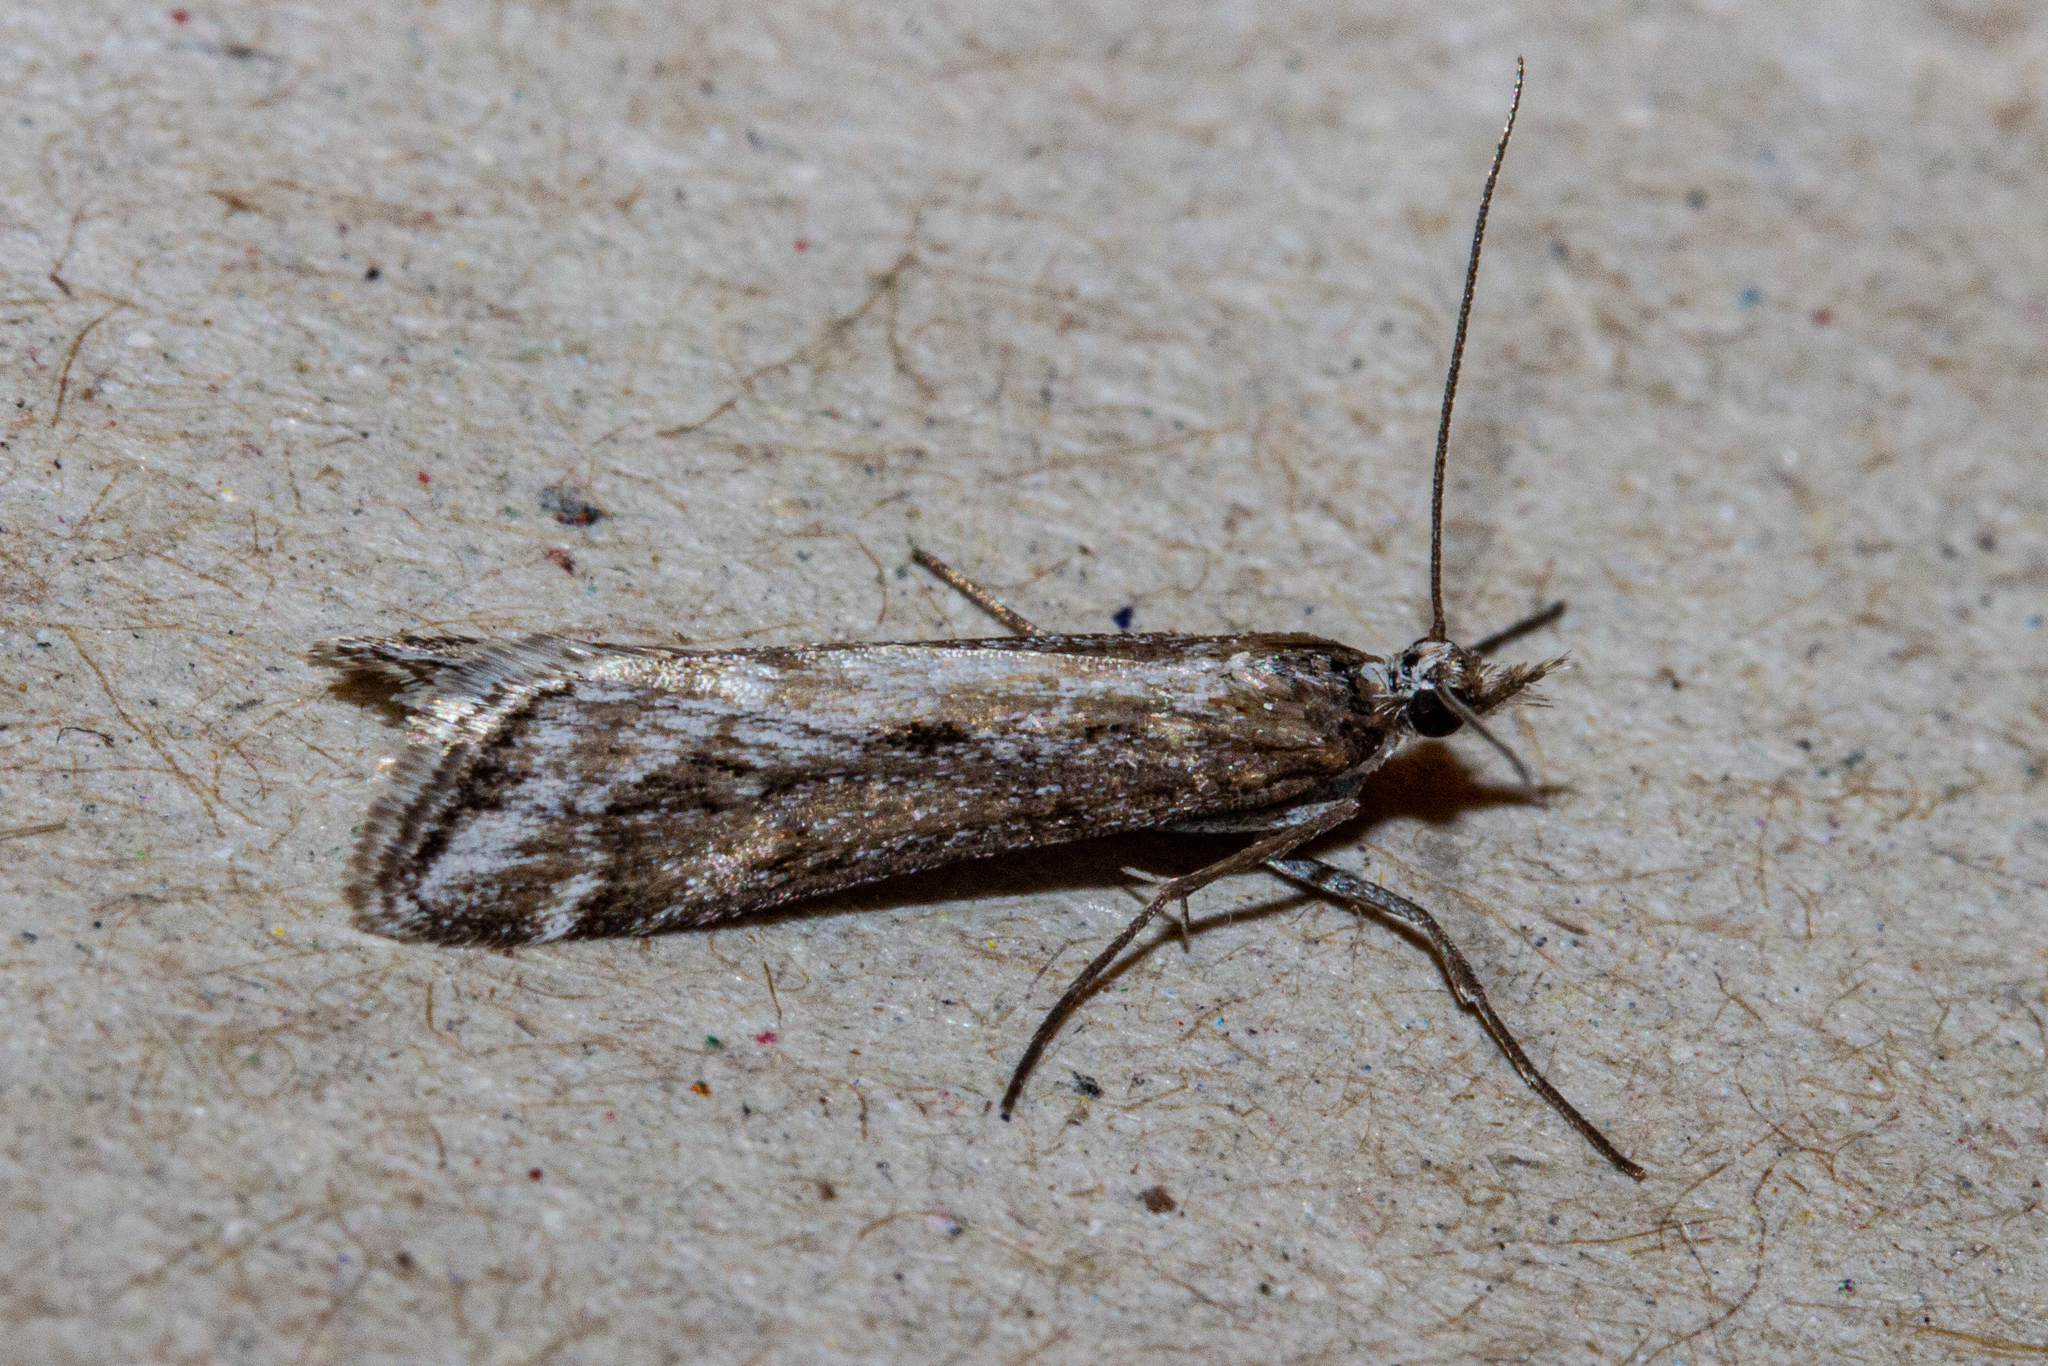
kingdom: Animalia
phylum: Arthropoda
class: Insecta
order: Lepidoptera
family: Crambidae
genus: Scoparia
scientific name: Scoparia exilis
